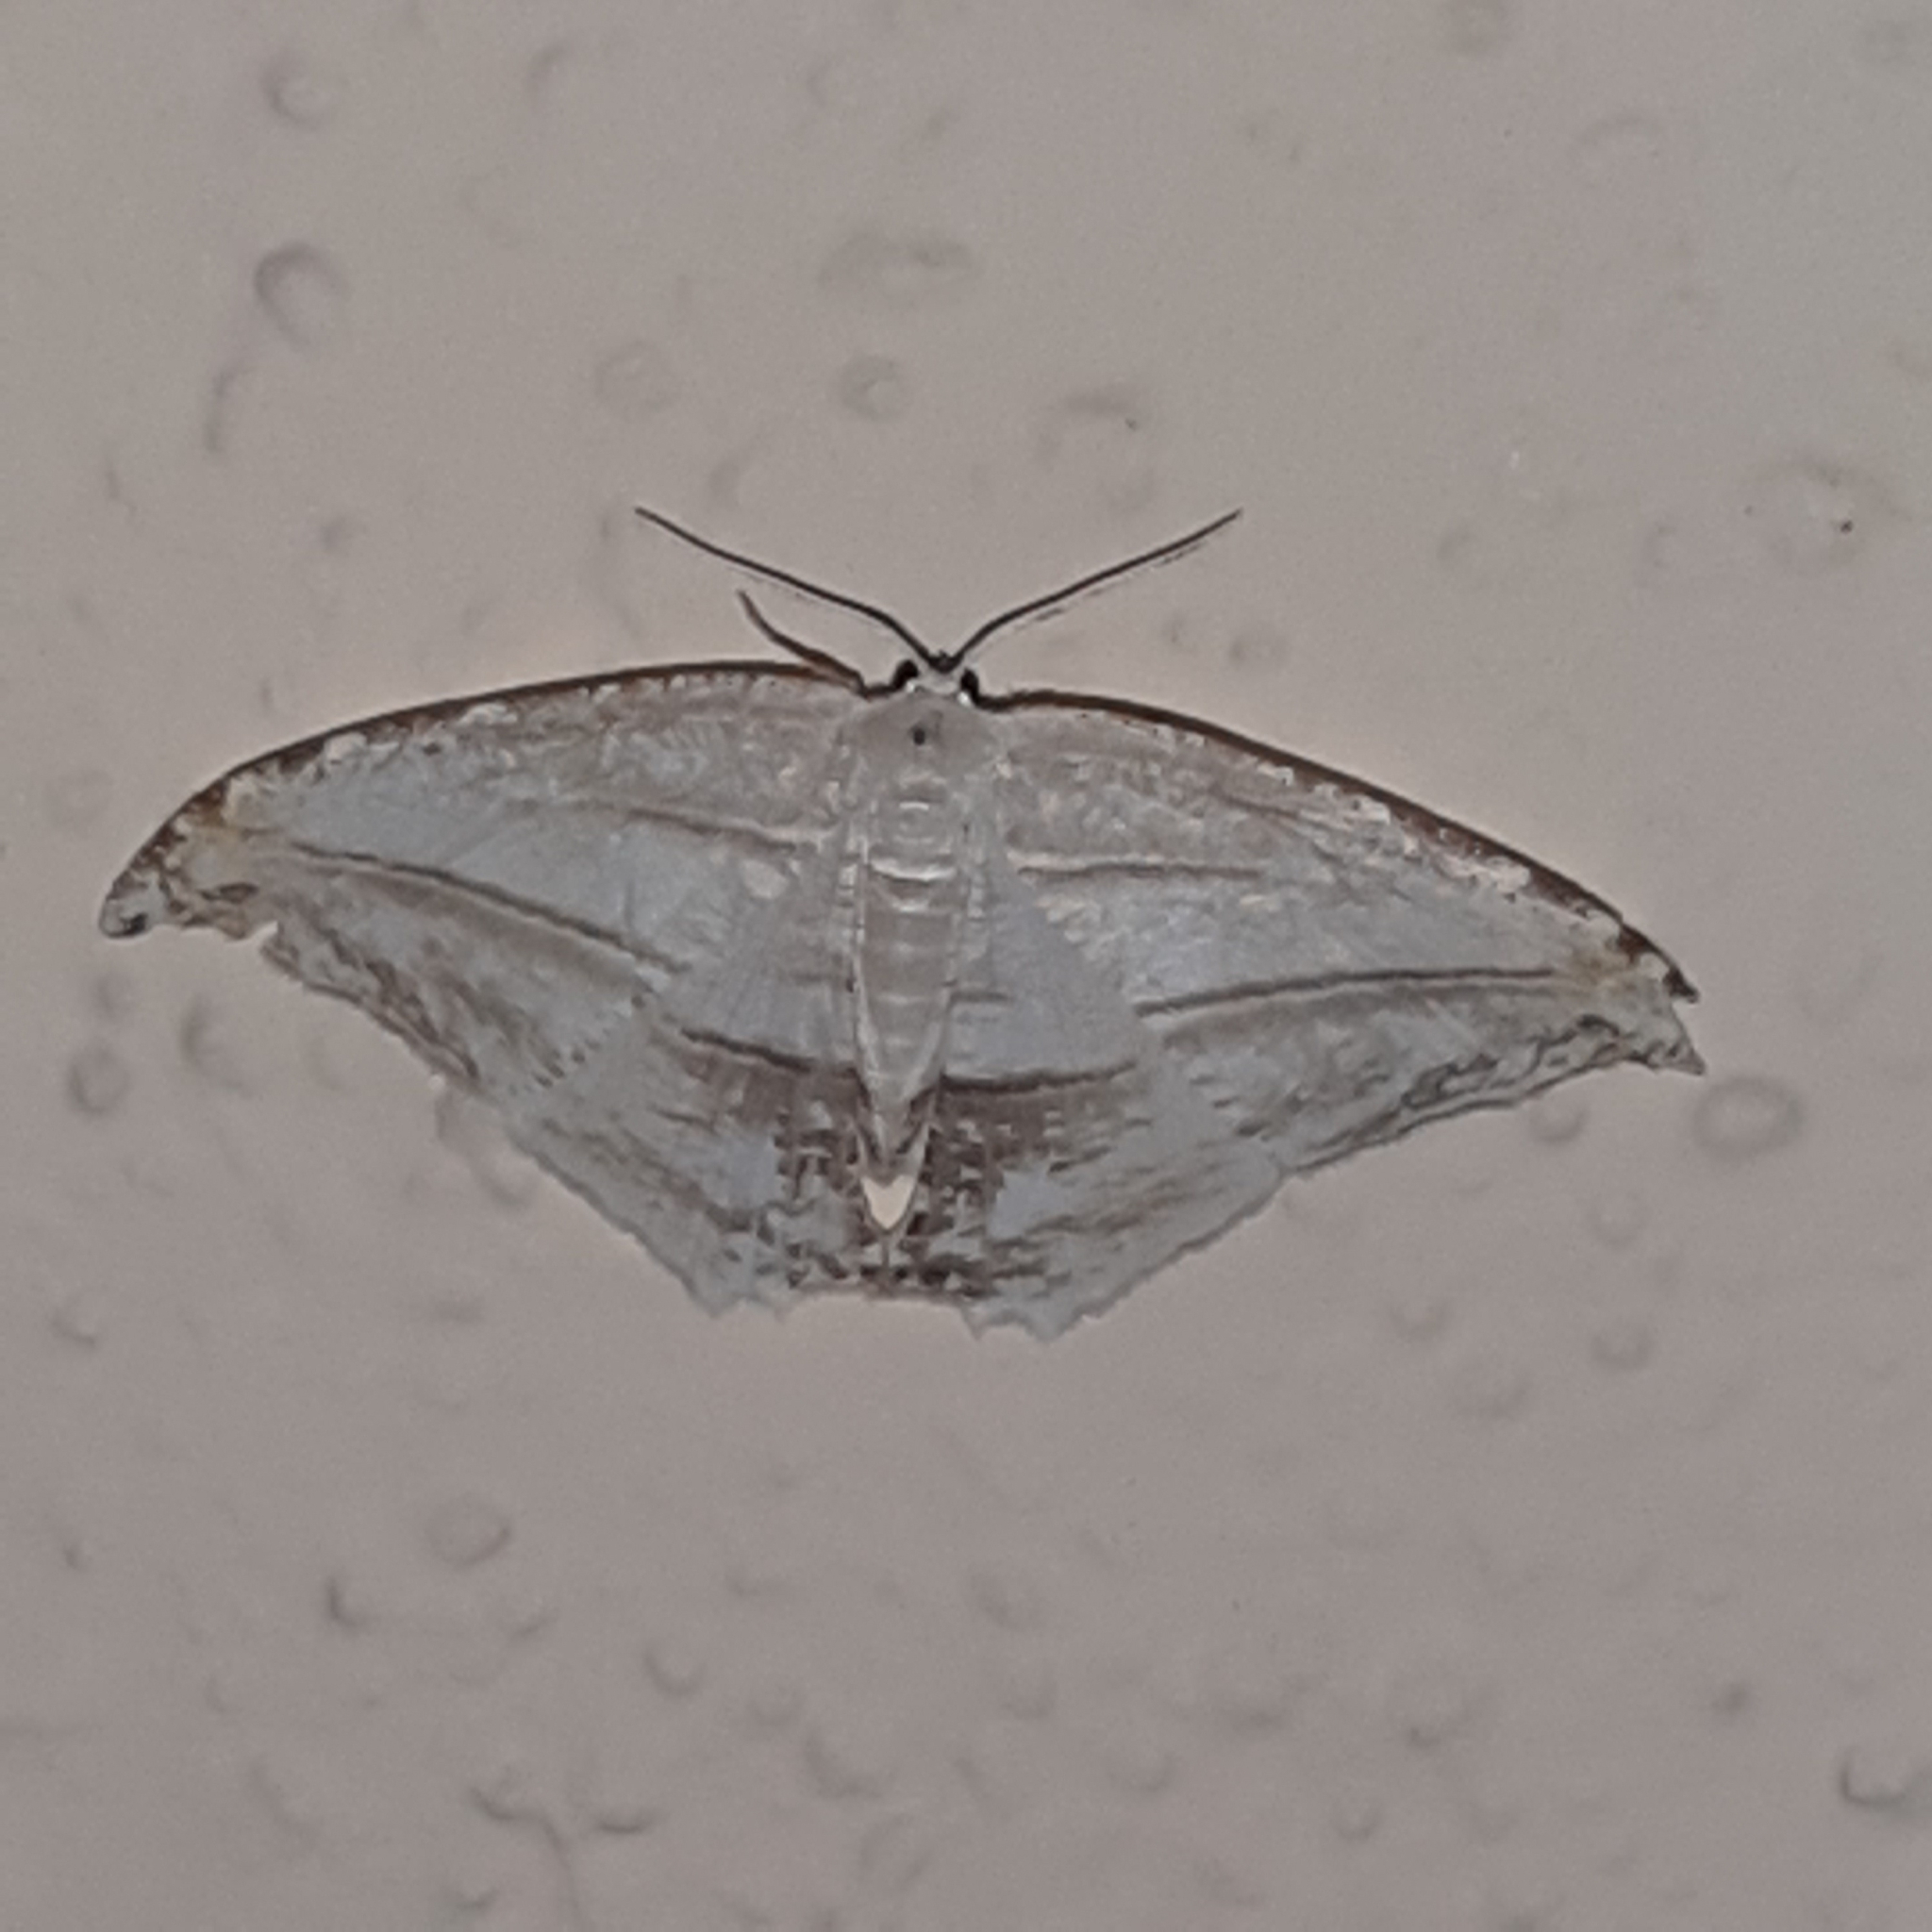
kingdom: Animalia
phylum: Arthropoda
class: Insecta
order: Lepidoptera
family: Uraniidae
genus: Morphomima
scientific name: Morphomima fulvitacta
